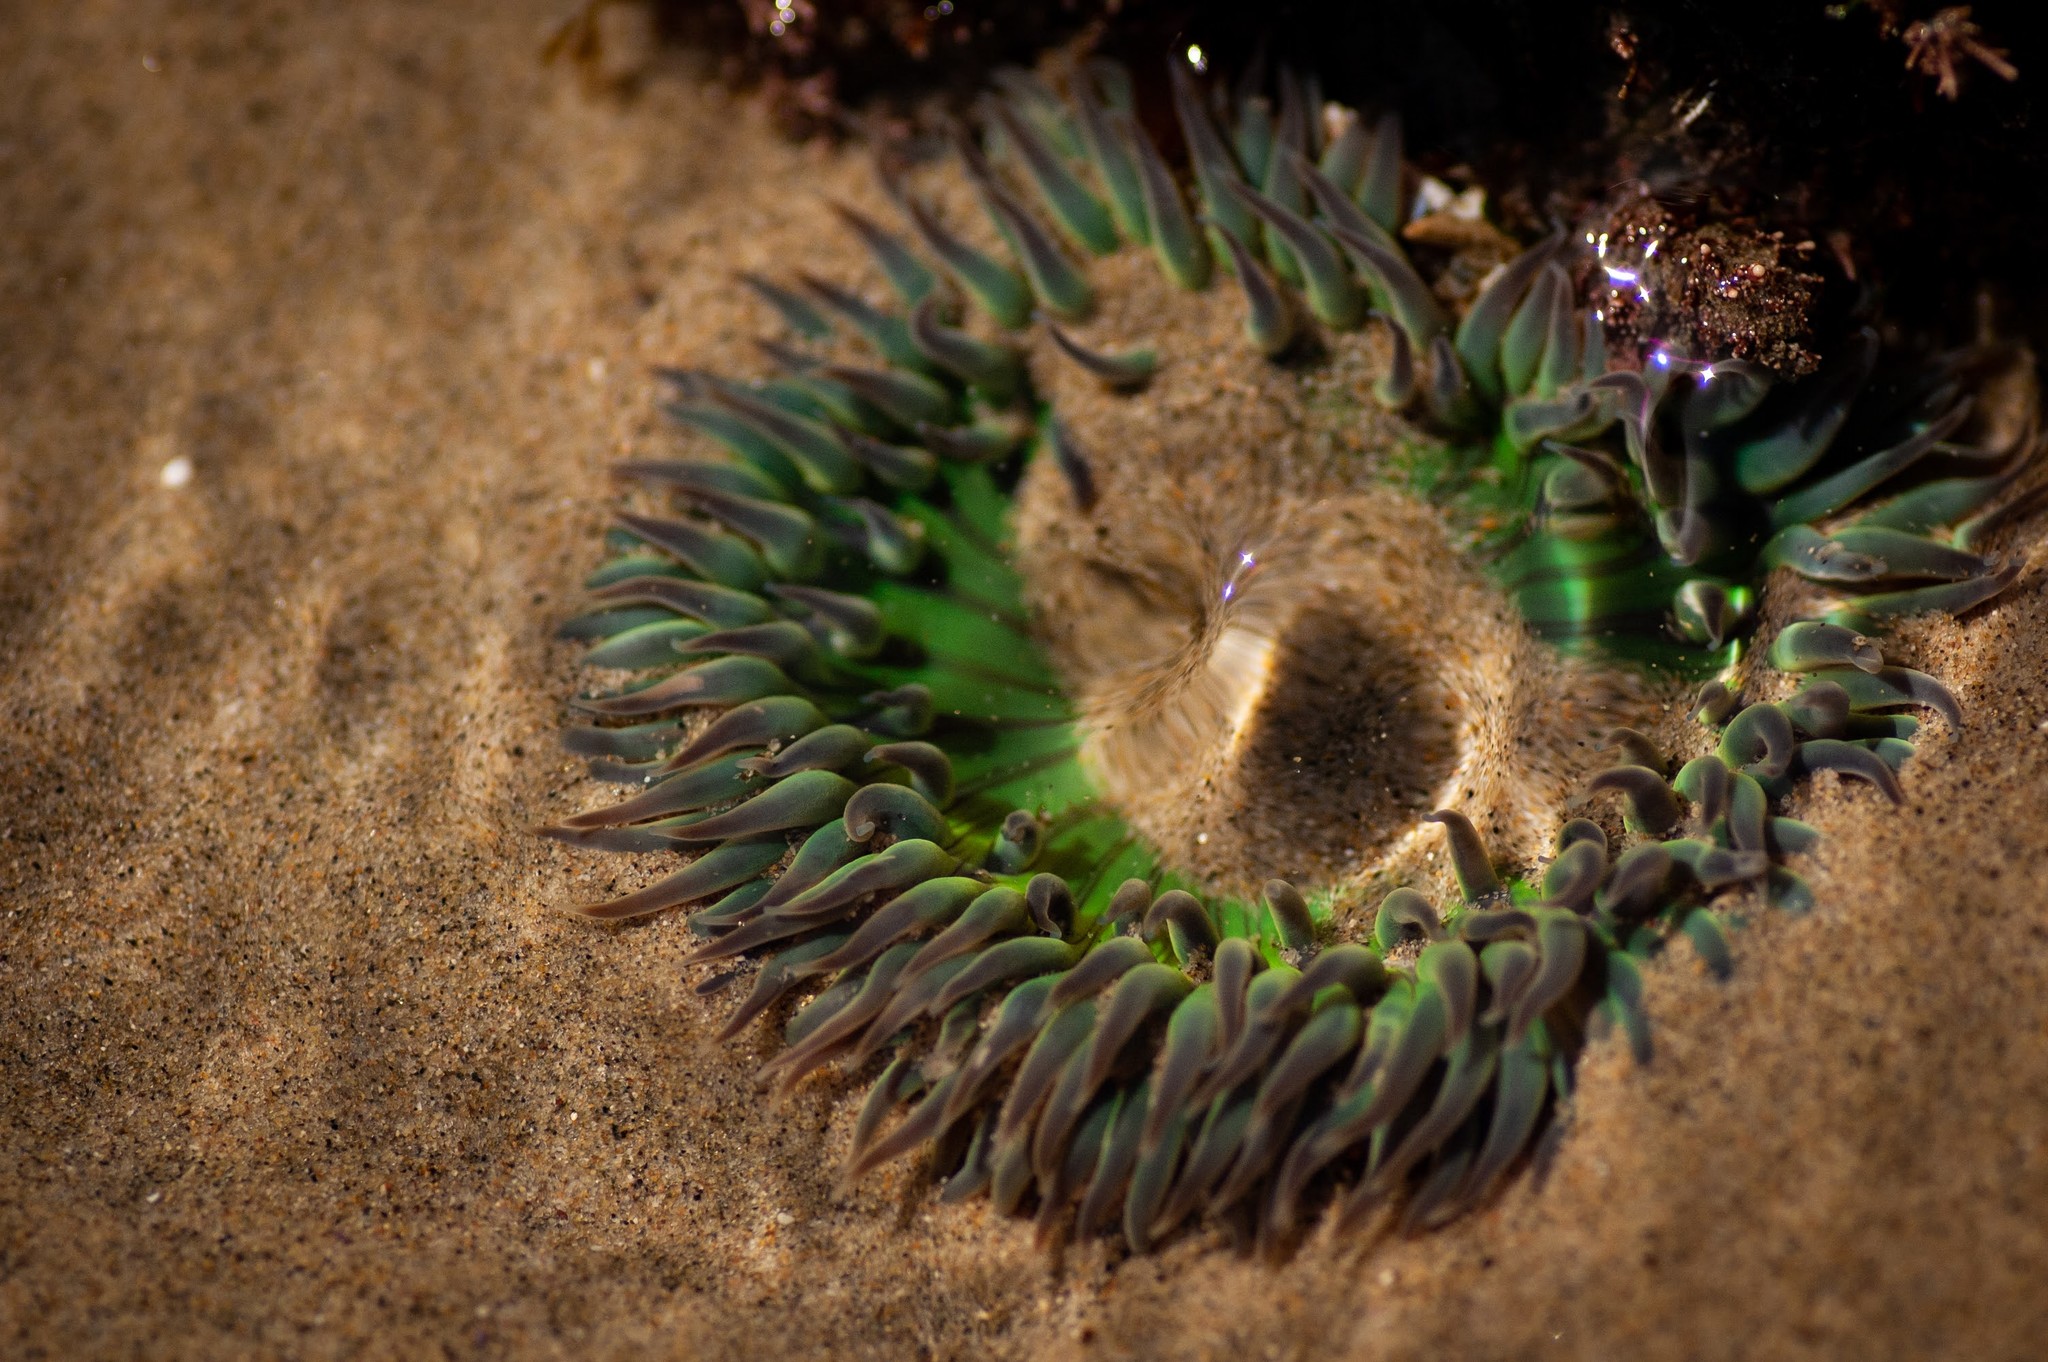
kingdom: Animalia
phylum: Cnidaria
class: Anthozoa
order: Actiniaria
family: Actiniidae
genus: Anthopleura
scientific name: Anthopleura sola
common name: Sun anemone
